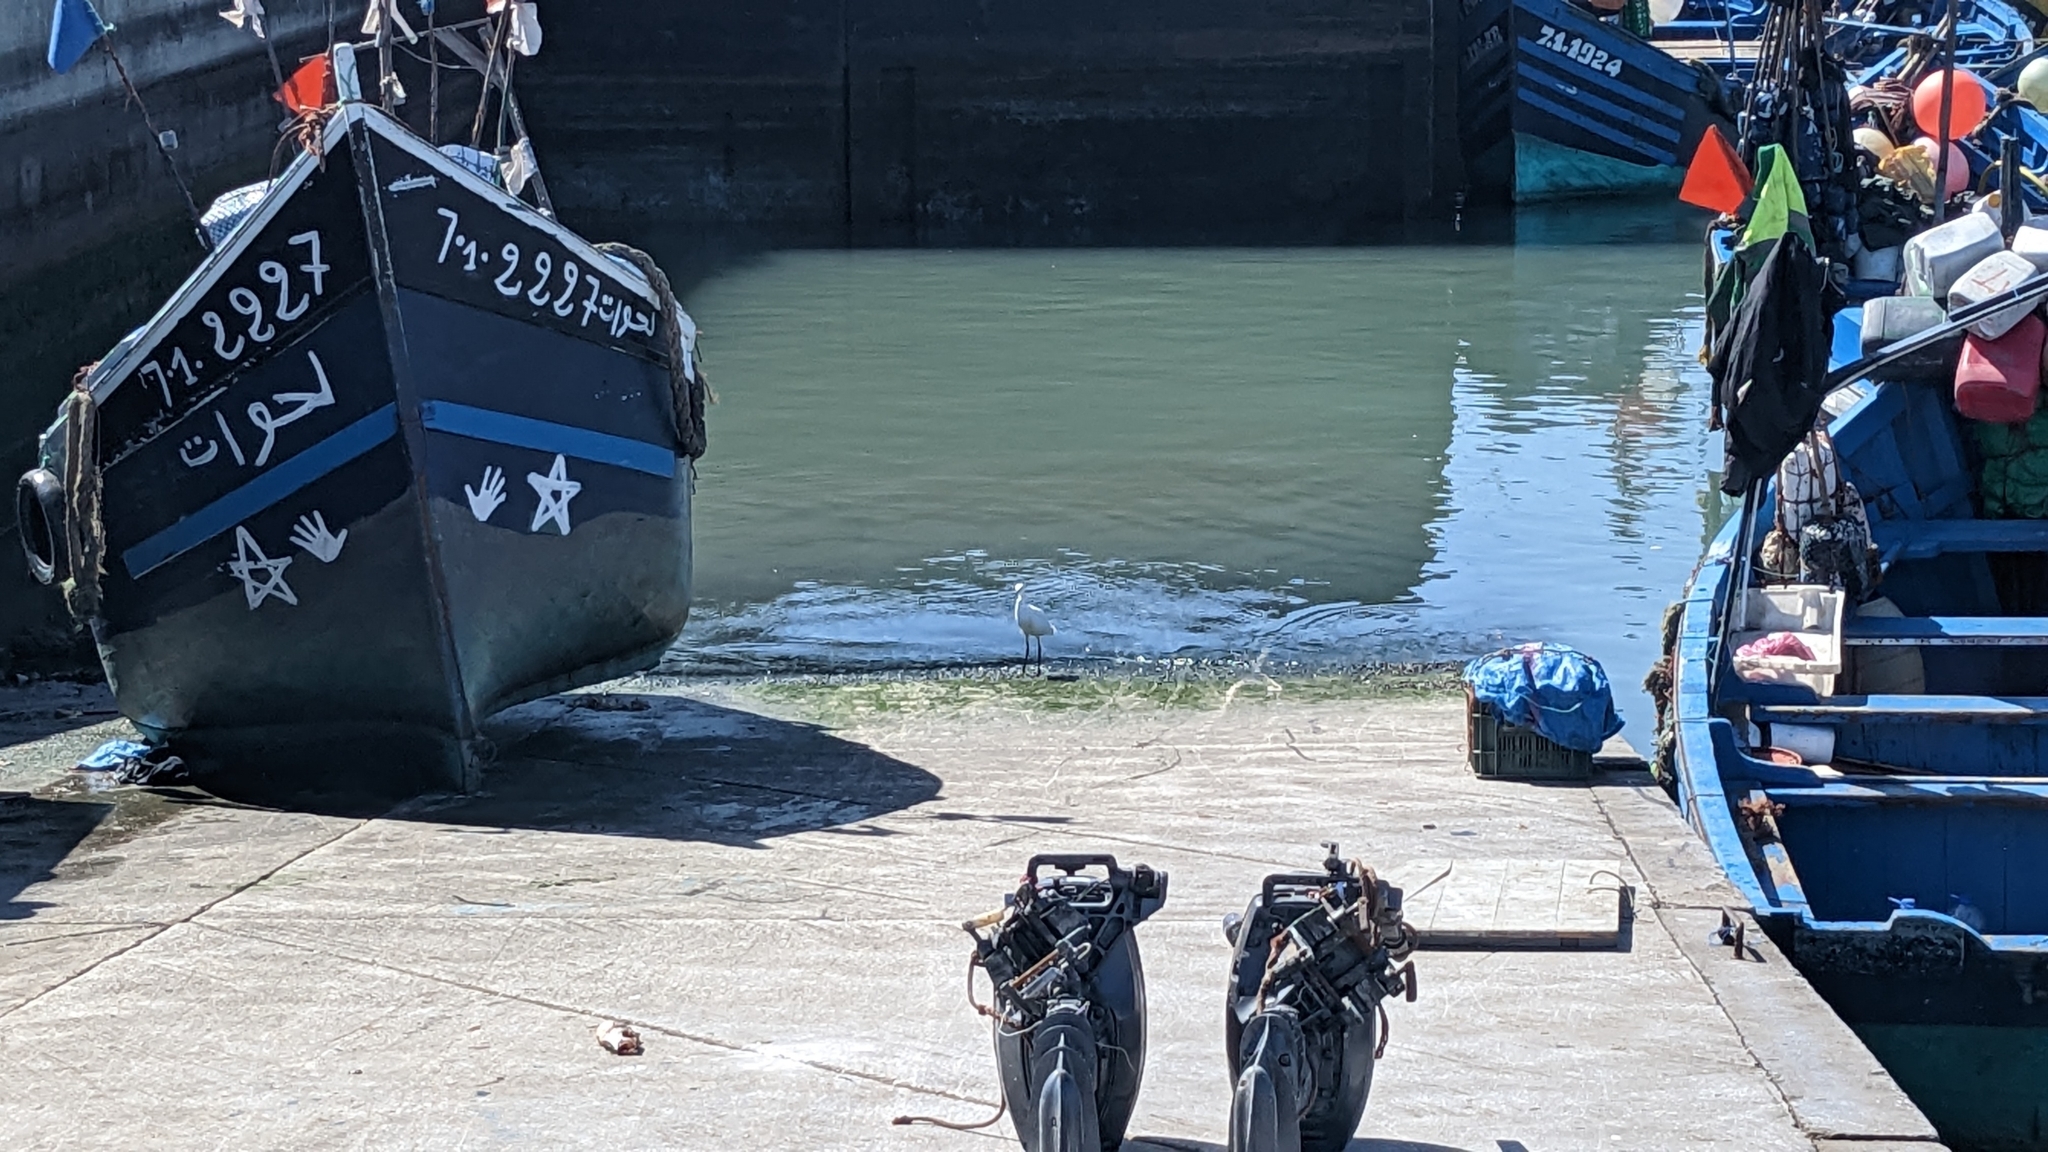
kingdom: Animalia
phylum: Chordata
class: Aves
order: Pelecaniformes
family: Ardeidae
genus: Egretta
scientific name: Egretta garzetta
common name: Little egret
